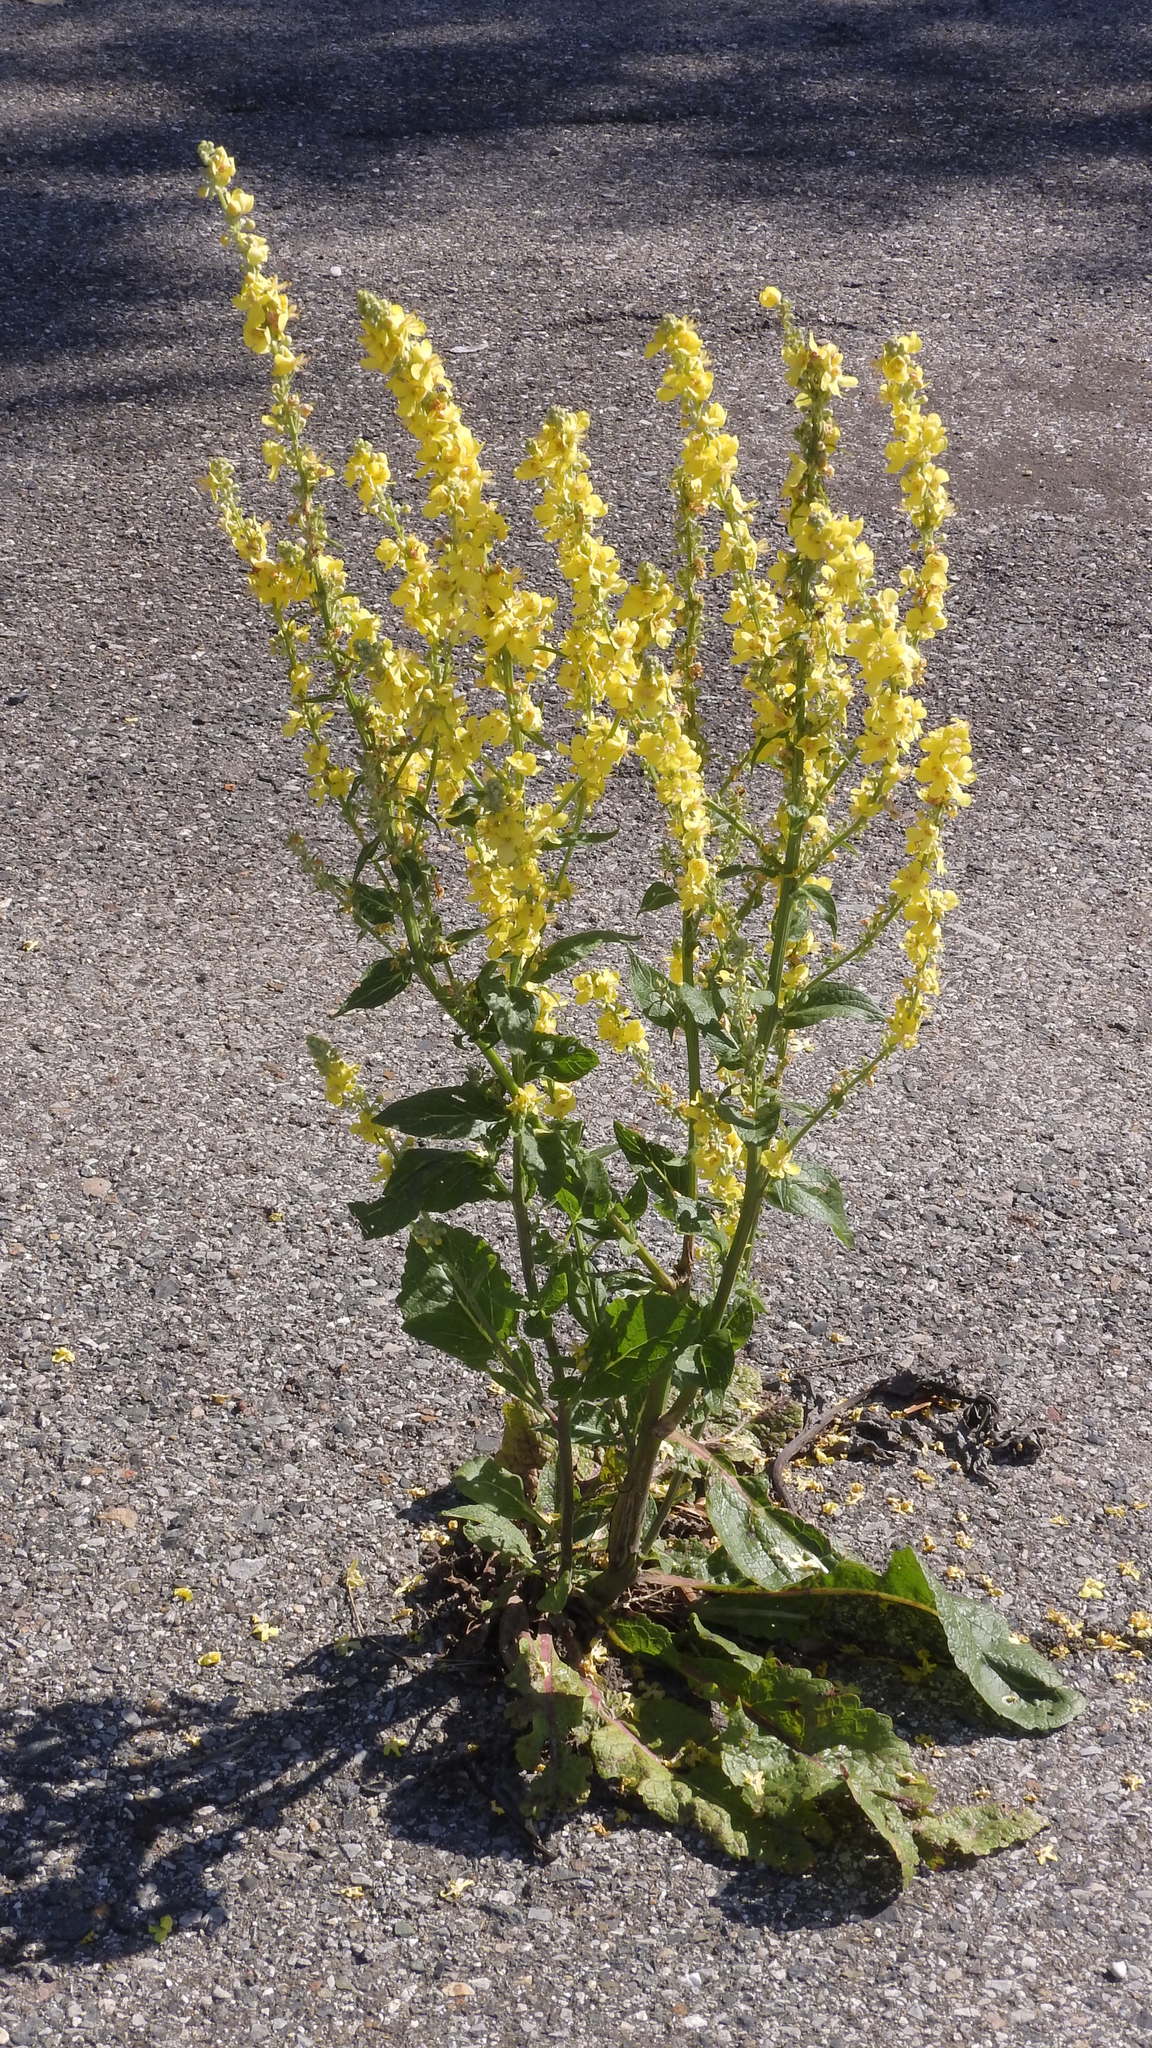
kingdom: Plantae
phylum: Tracheophyta
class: Magnoliopsida
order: Lamiales
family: Scrophulariaceae
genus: Verbascum
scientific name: Verbascum lychnitis
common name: White mullein
